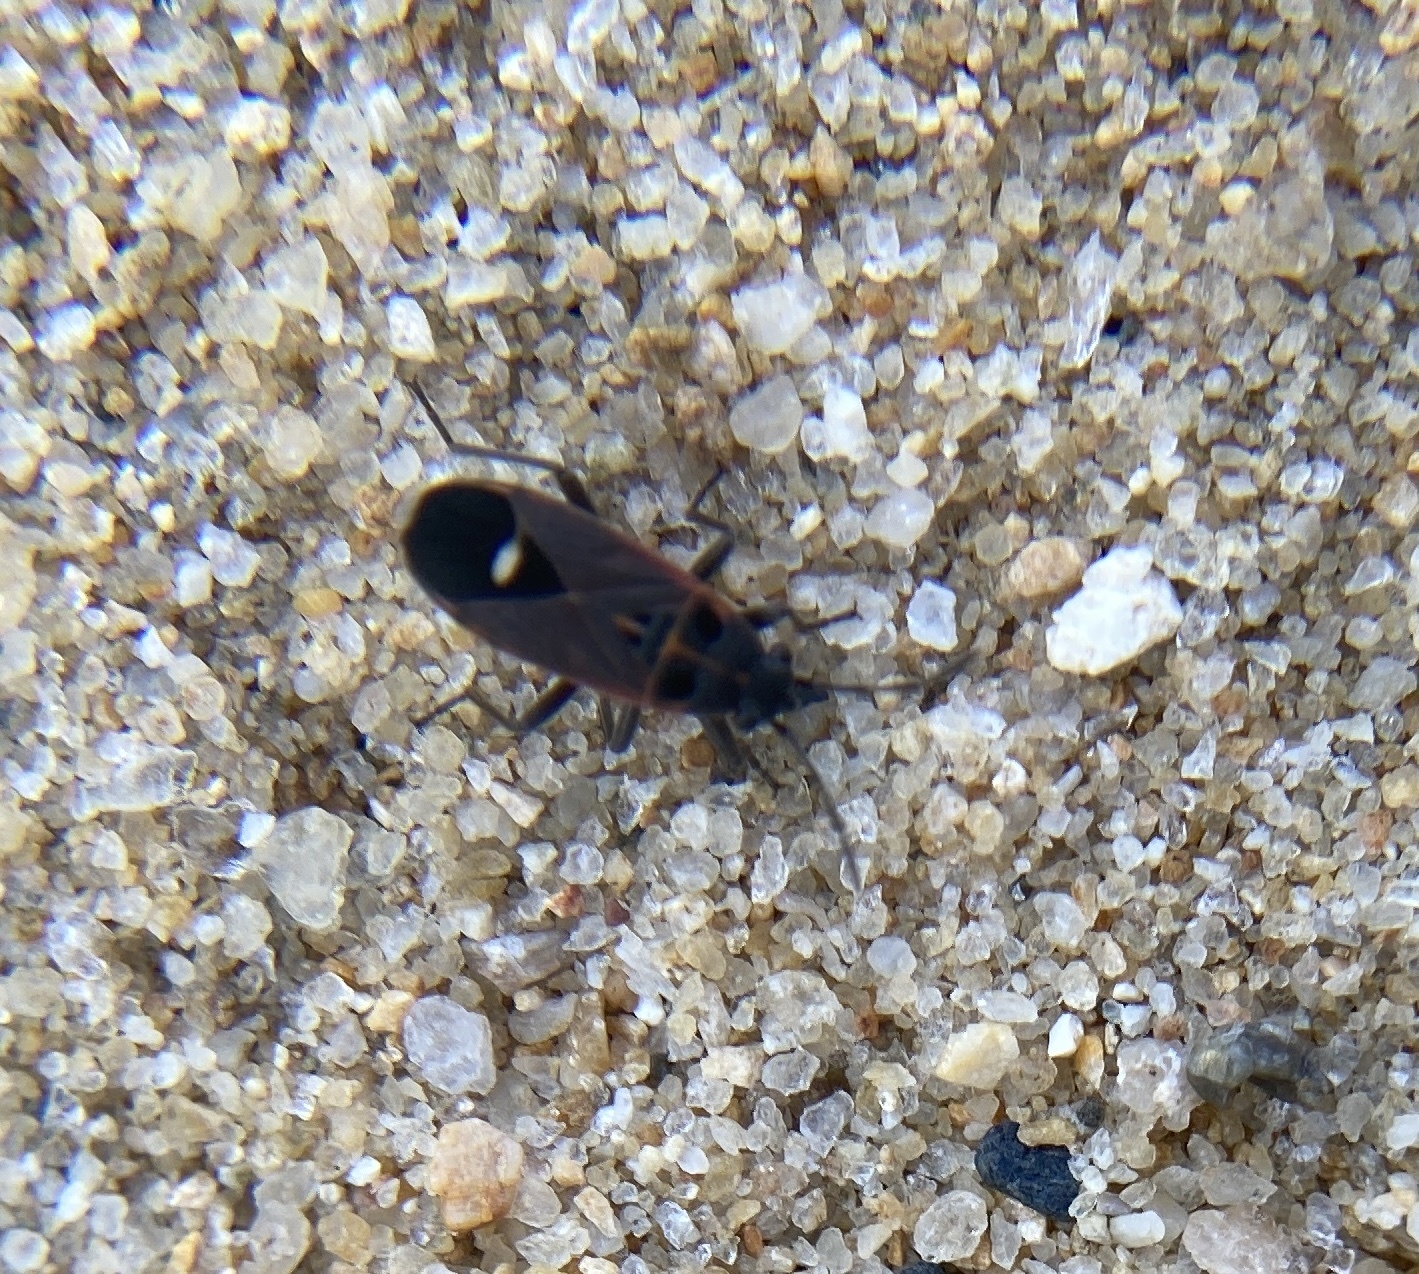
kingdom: Animalia
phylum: Arthropoda
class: Insecta
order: Hemiptera
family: Lygaeidae
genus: Aspilocoryphus
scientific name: Aspilocoryphus australicus
